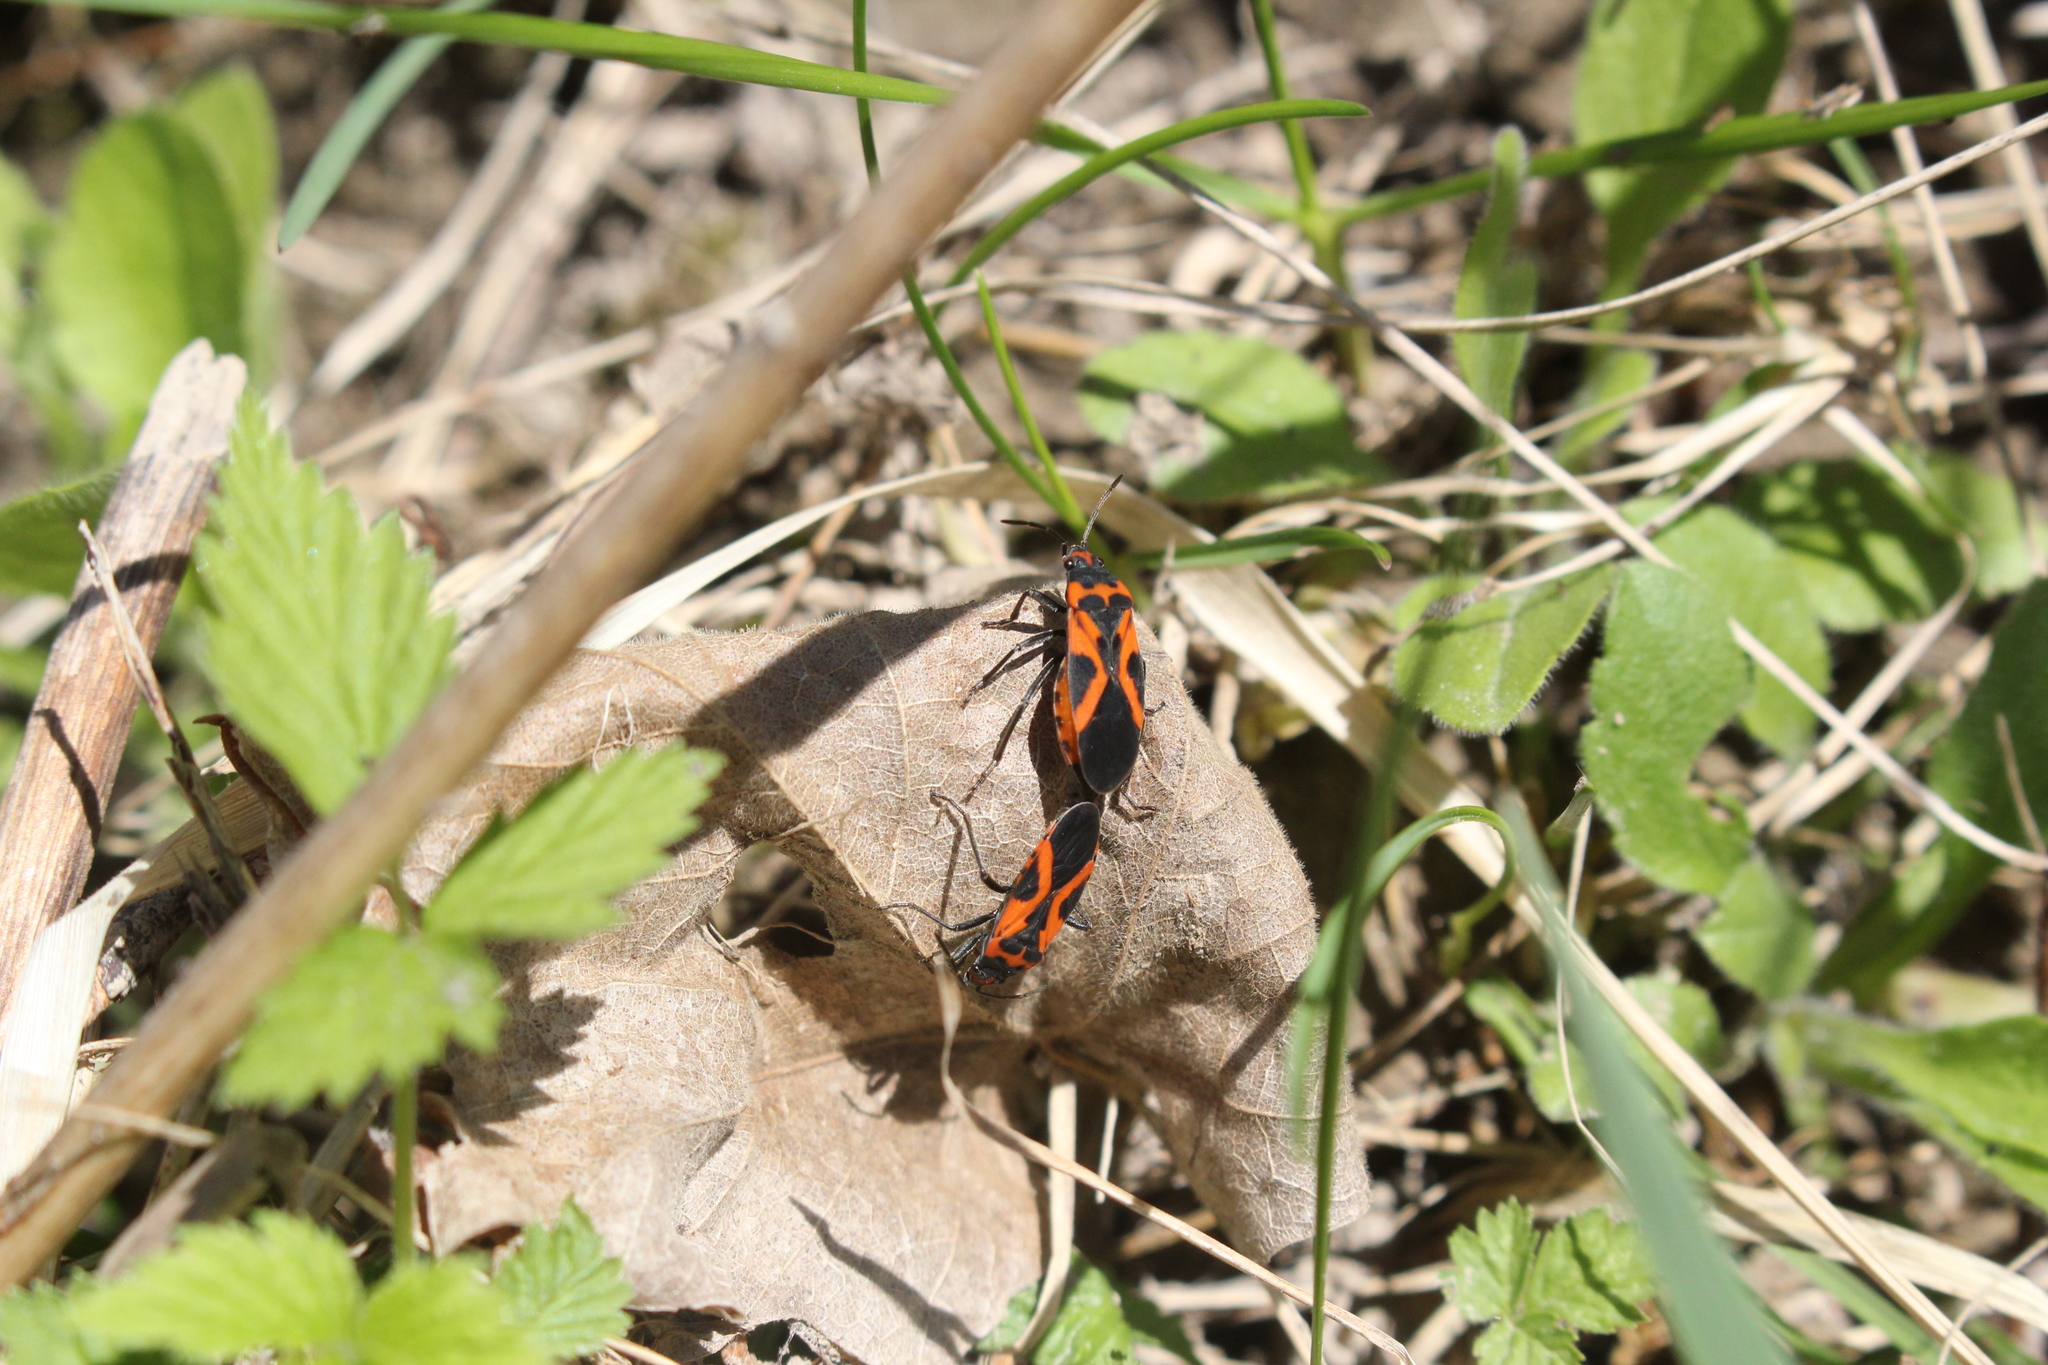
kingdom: Animalia
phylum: Arthropoda
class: Insecta
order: Hemiptera
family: Lygaeidae
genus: Lygaeus
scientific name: Lygaeus turcicus
